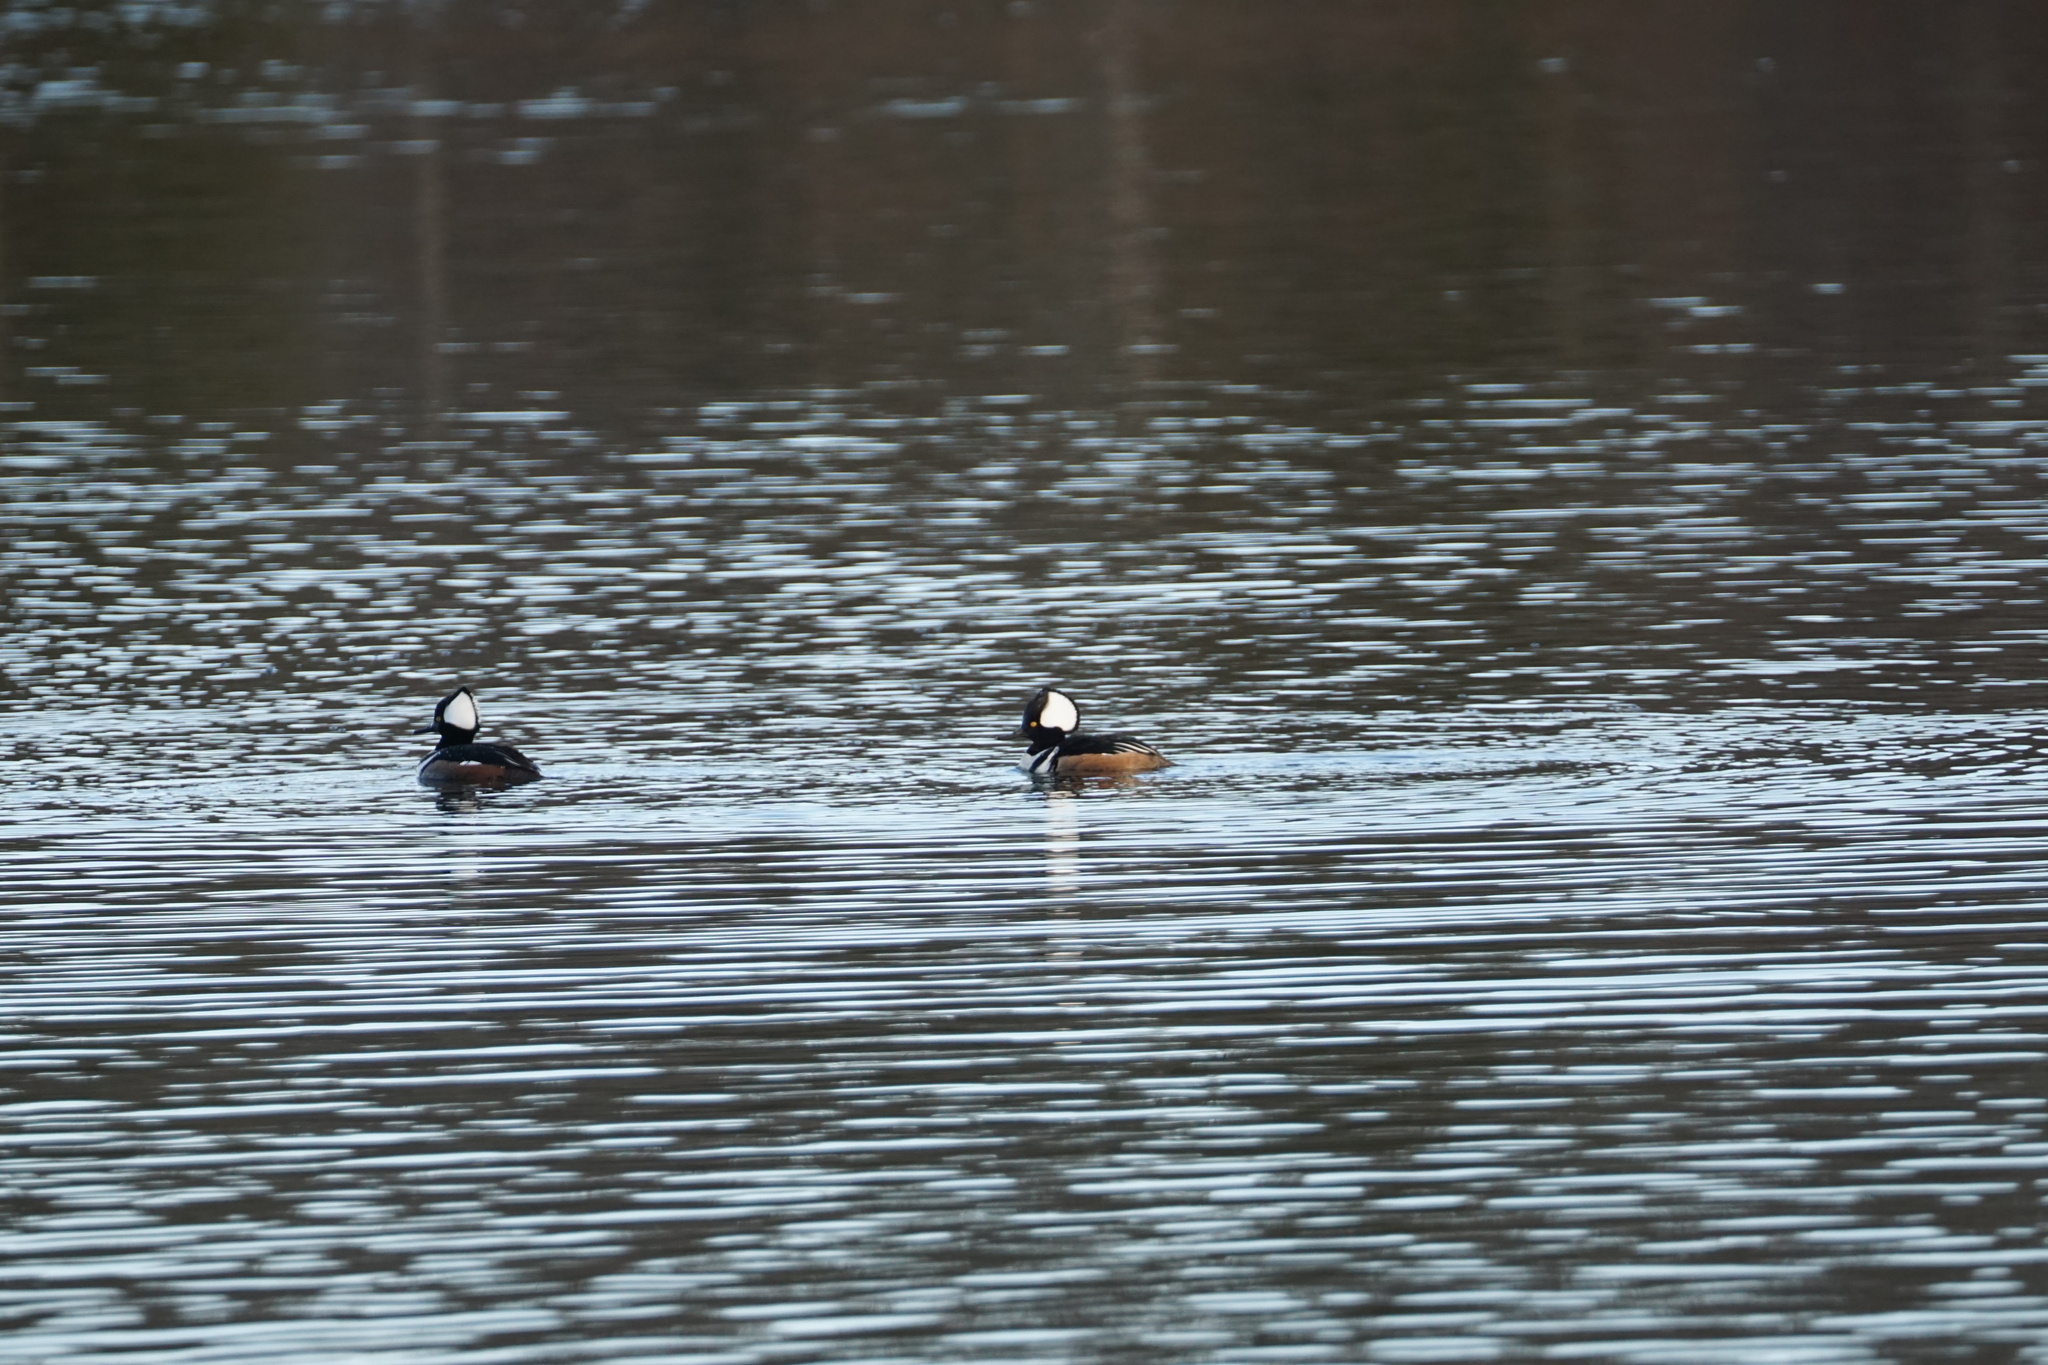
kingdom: Animalia
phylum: Chordata
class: Aves
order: Anseriformes
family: Anatidae
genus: Lophodytes
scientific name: Lophodytes cucullatus
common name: Hooded merganser
